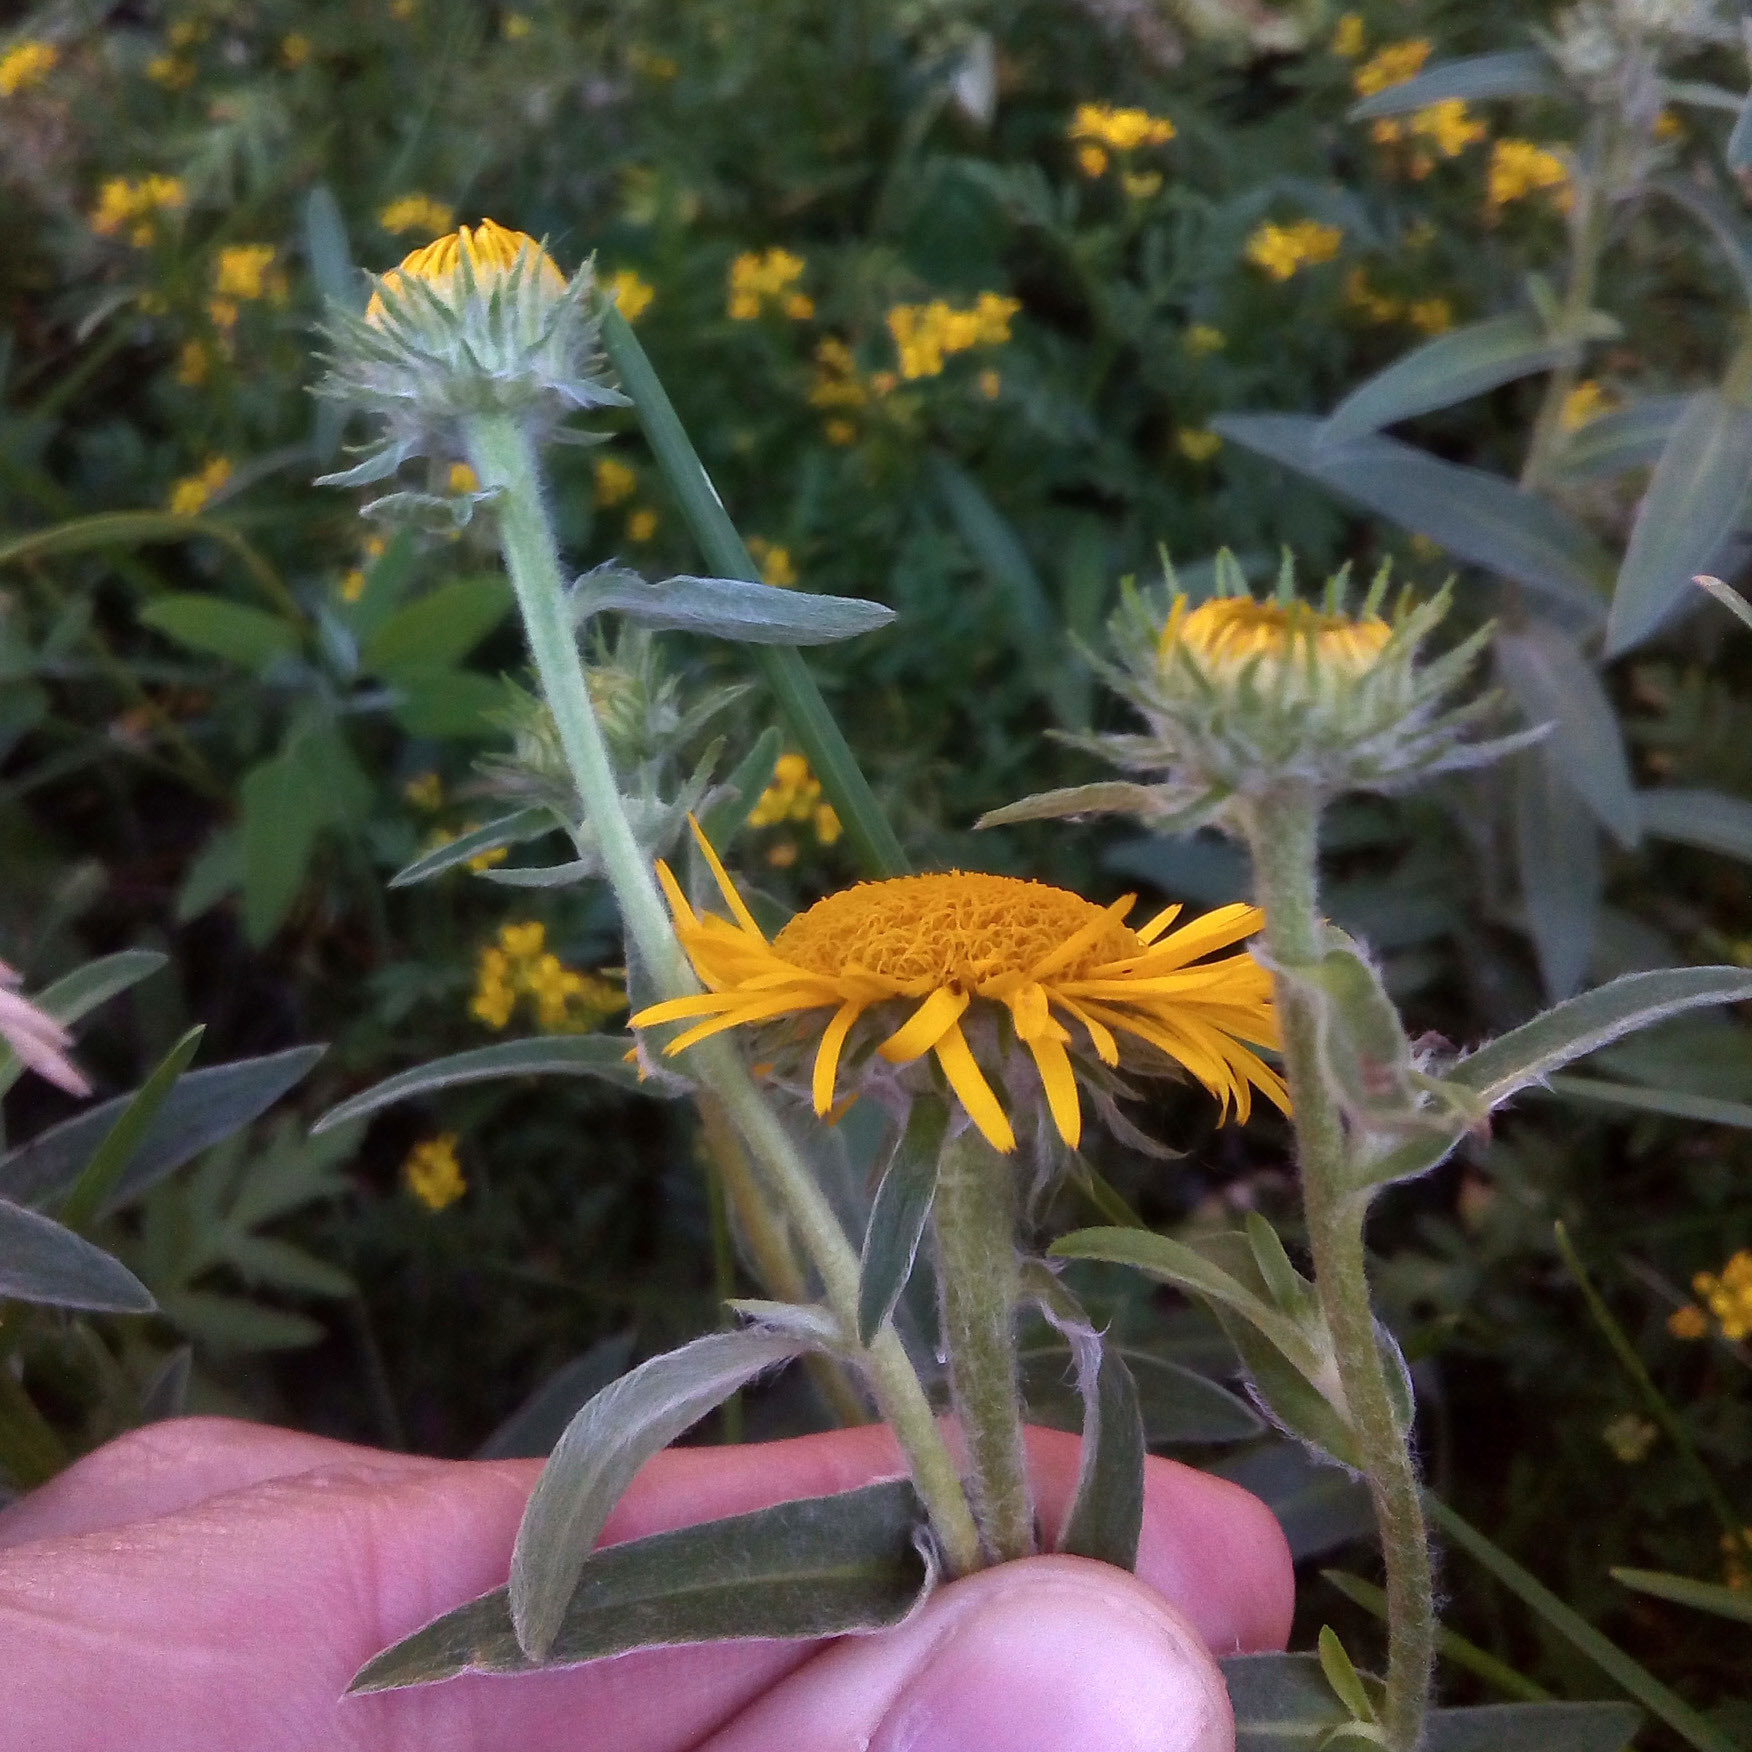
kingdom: Plantae
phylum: Tracheophyta
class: Magnoliopsida
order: Asterales
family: Asteraceae
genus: Pentanema
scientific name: Pentanema britannicum
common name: British elecampane
